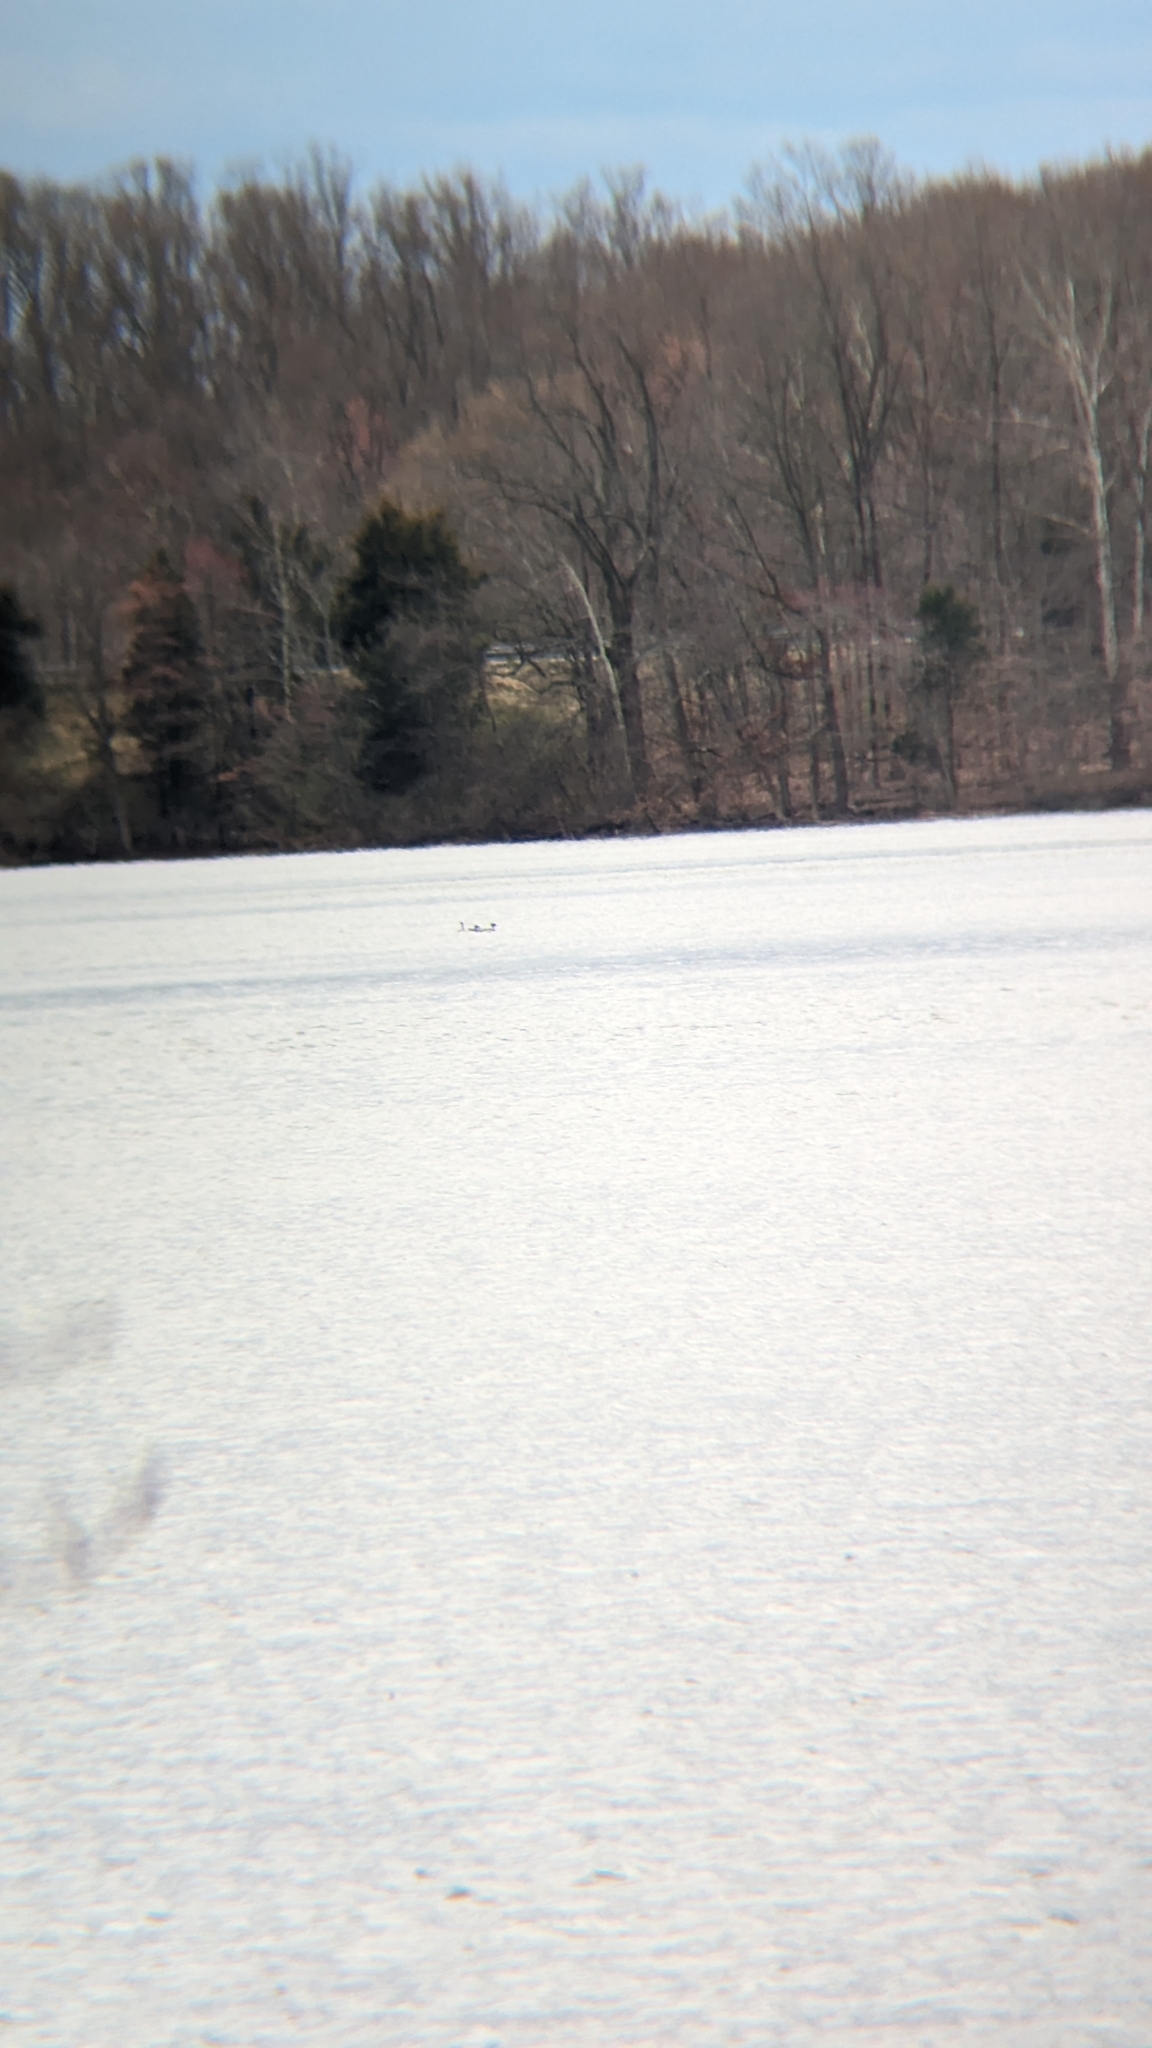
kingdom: Animalia
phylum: Chordata
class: Aves
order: Anseriformes
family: Anatidae
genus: Mergus
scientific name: Mergus serrator
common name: Red-breasted merganser
